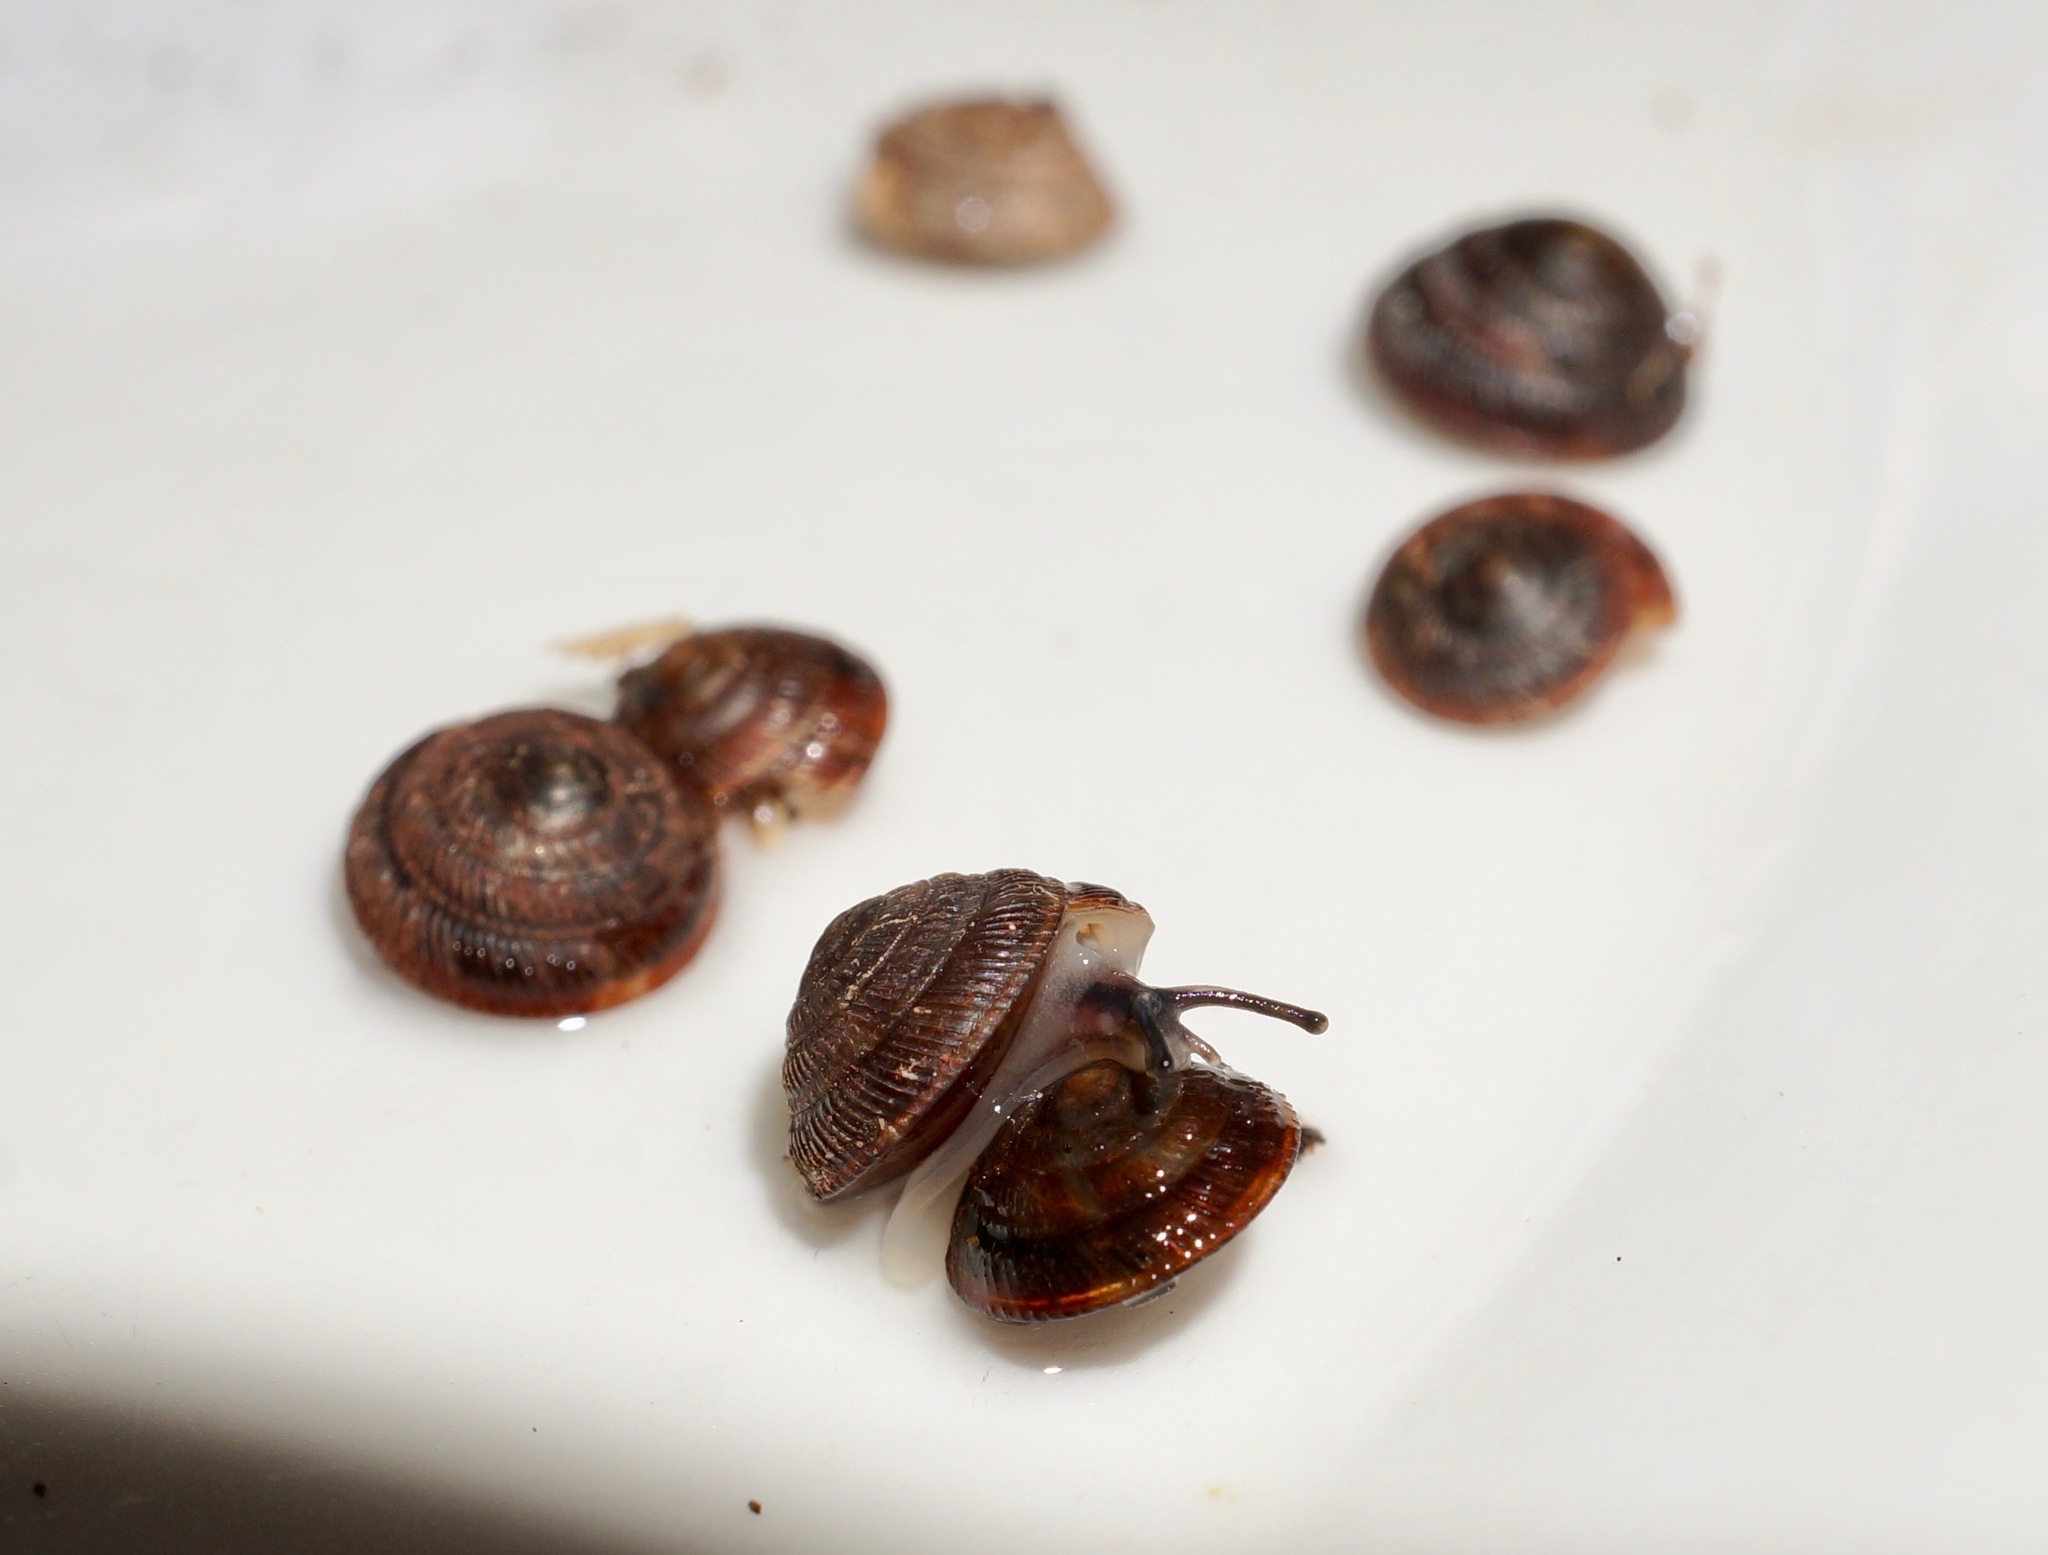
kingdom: Animalia
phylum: Mollusca
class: Gastropoda
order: Stylommatophora
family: Microcystidae
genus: Fanulena
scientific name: Fanulena insculpta
